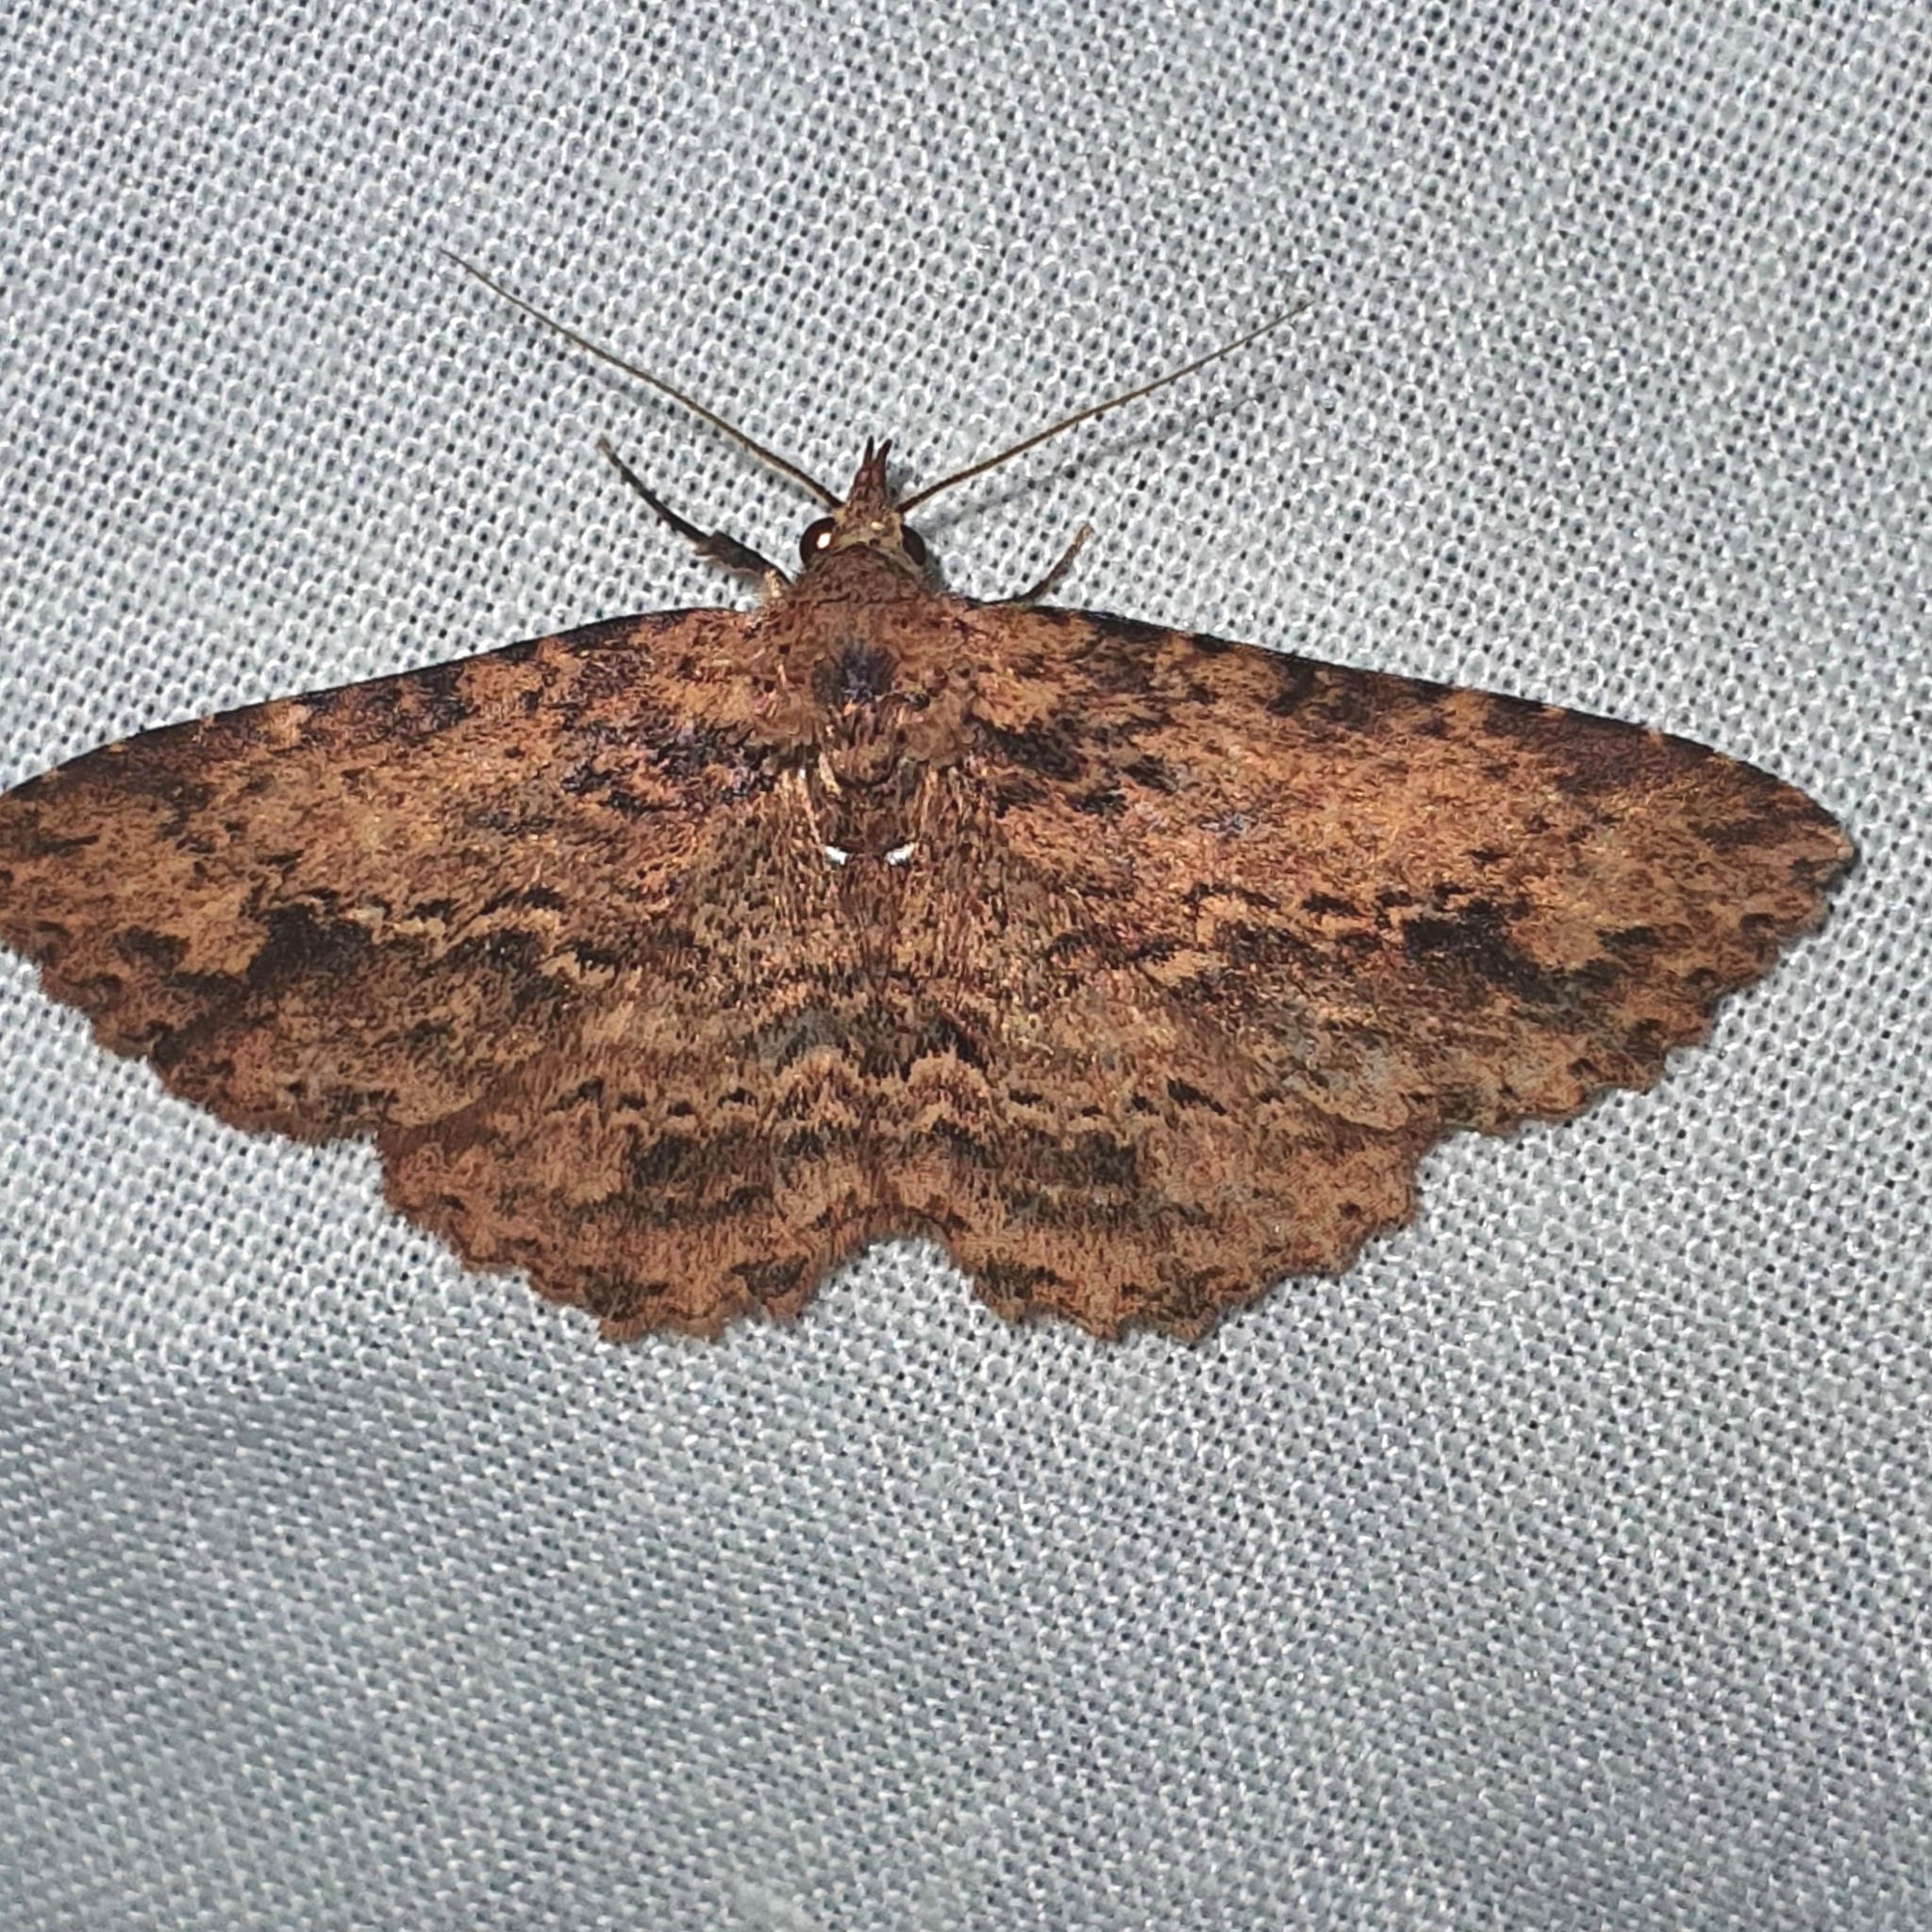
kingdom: Animalia
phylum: Arthropoda
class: Insecta
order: Lepidoptera
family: Erebidae
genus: Artigisa
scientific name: Artigisa melanephele
